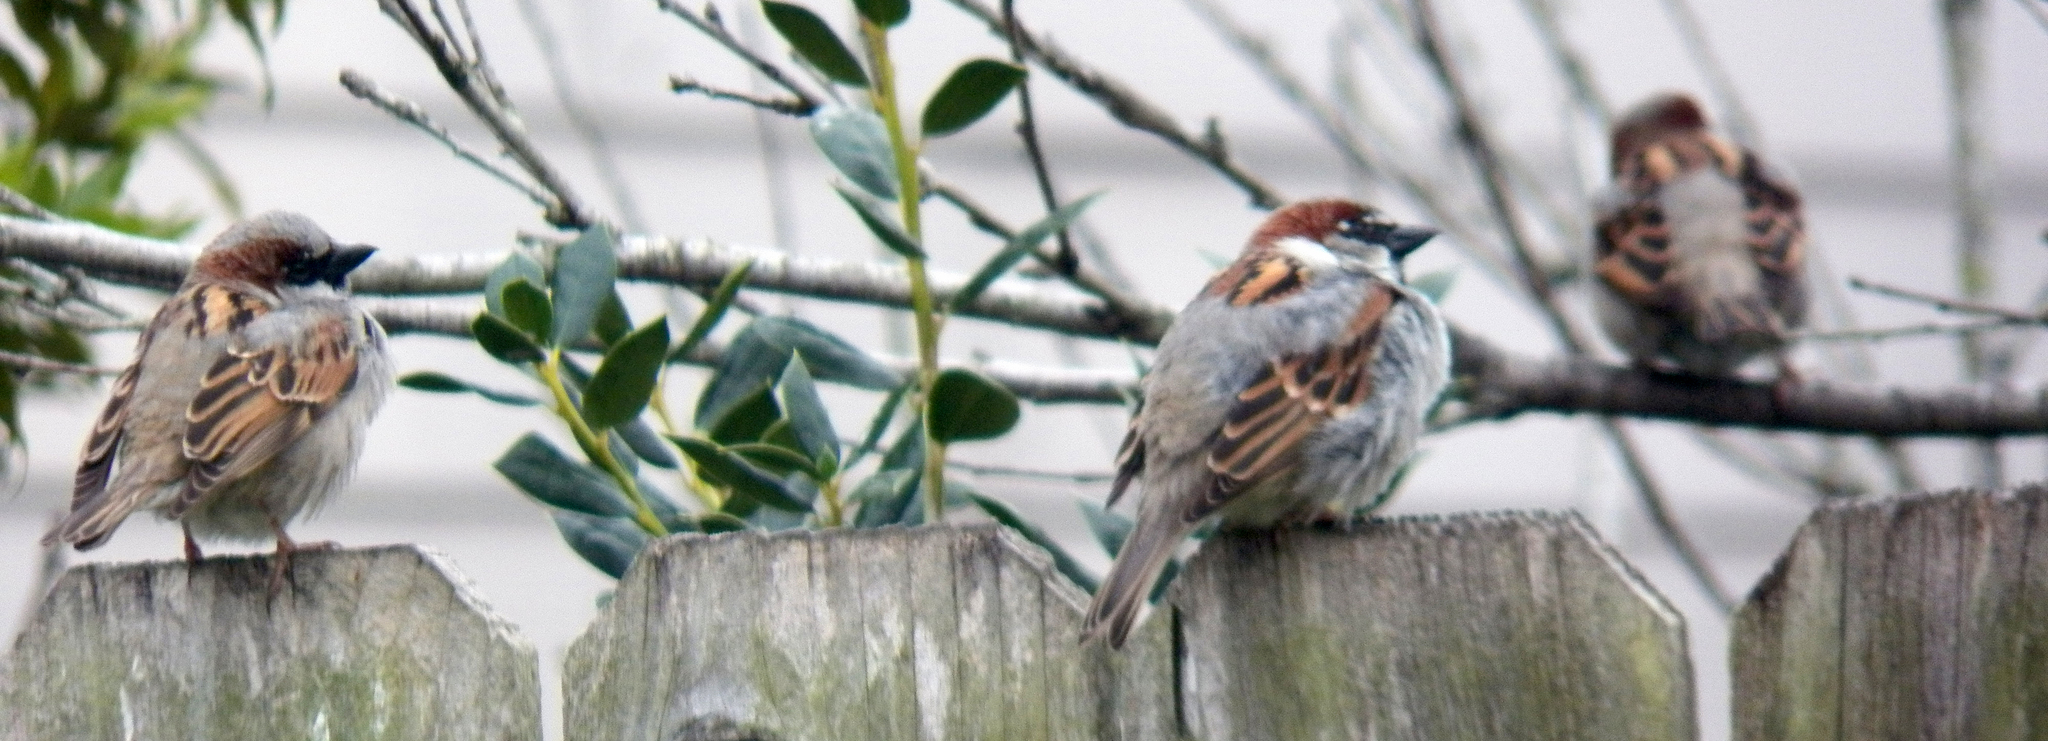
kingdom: Animalia
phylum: Chordata
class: Aves
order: Passeriformes
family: Passeridae
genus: Passer
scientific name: Passer domesticus
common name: House sparrow
